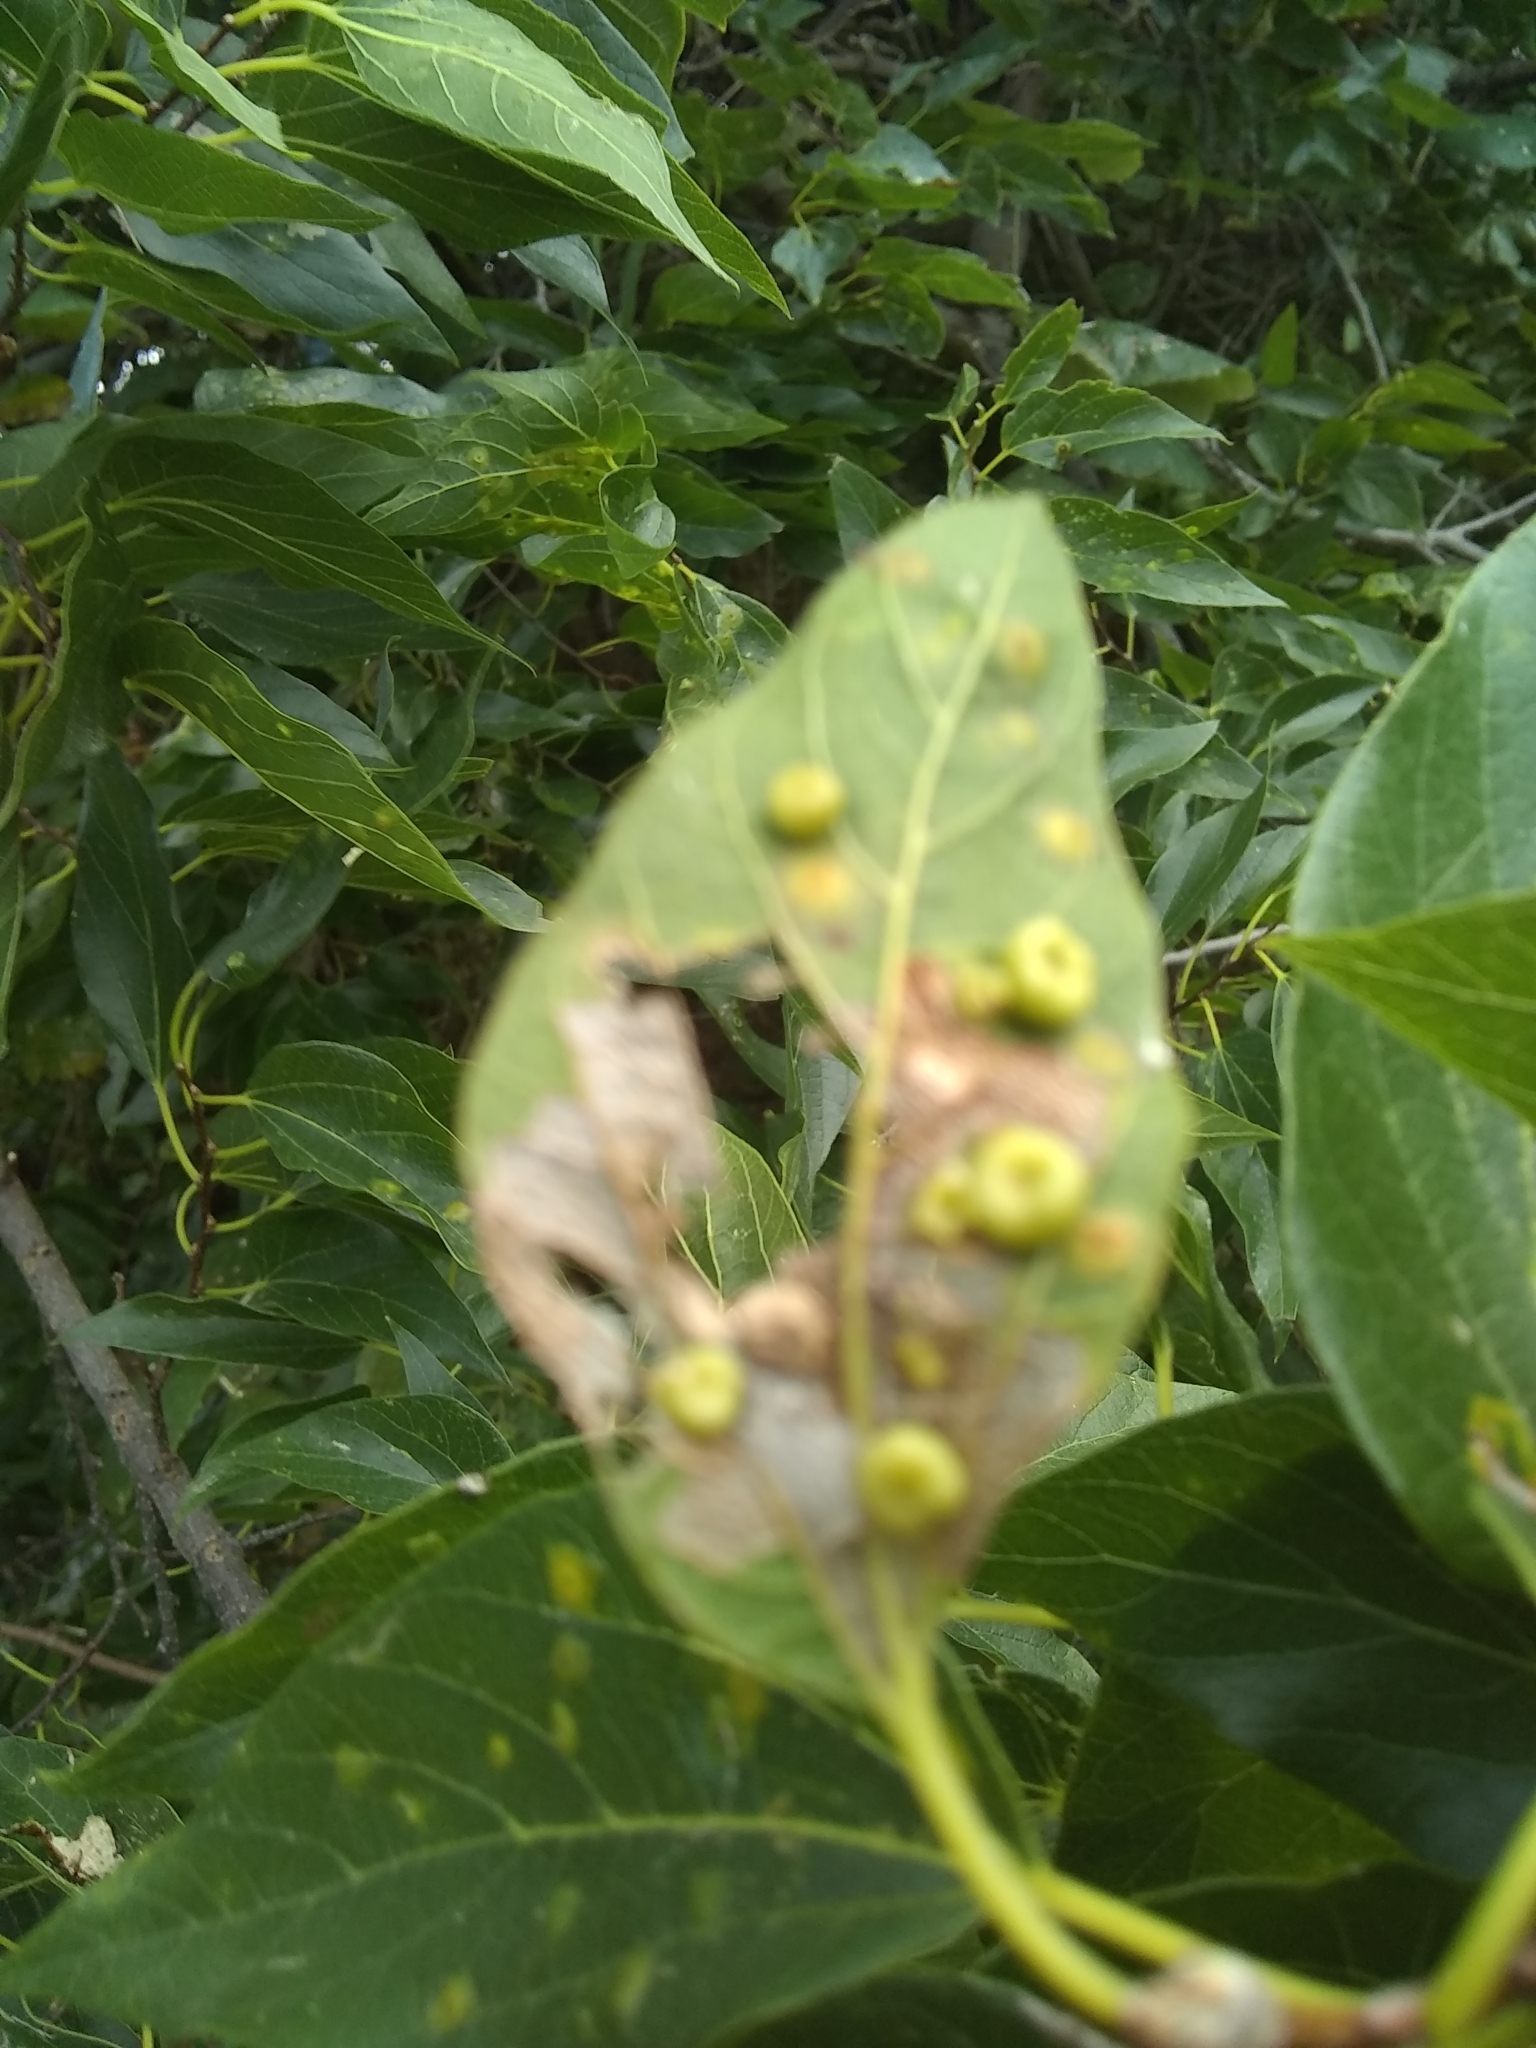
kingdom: Animalia
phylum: Arthropoda
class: Insecta
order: Hemiptera
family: Aphalaridae
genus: Pachypsylla
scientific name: Pachypsylla celtidismamma
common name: Hackberry nipplegall psyllid
